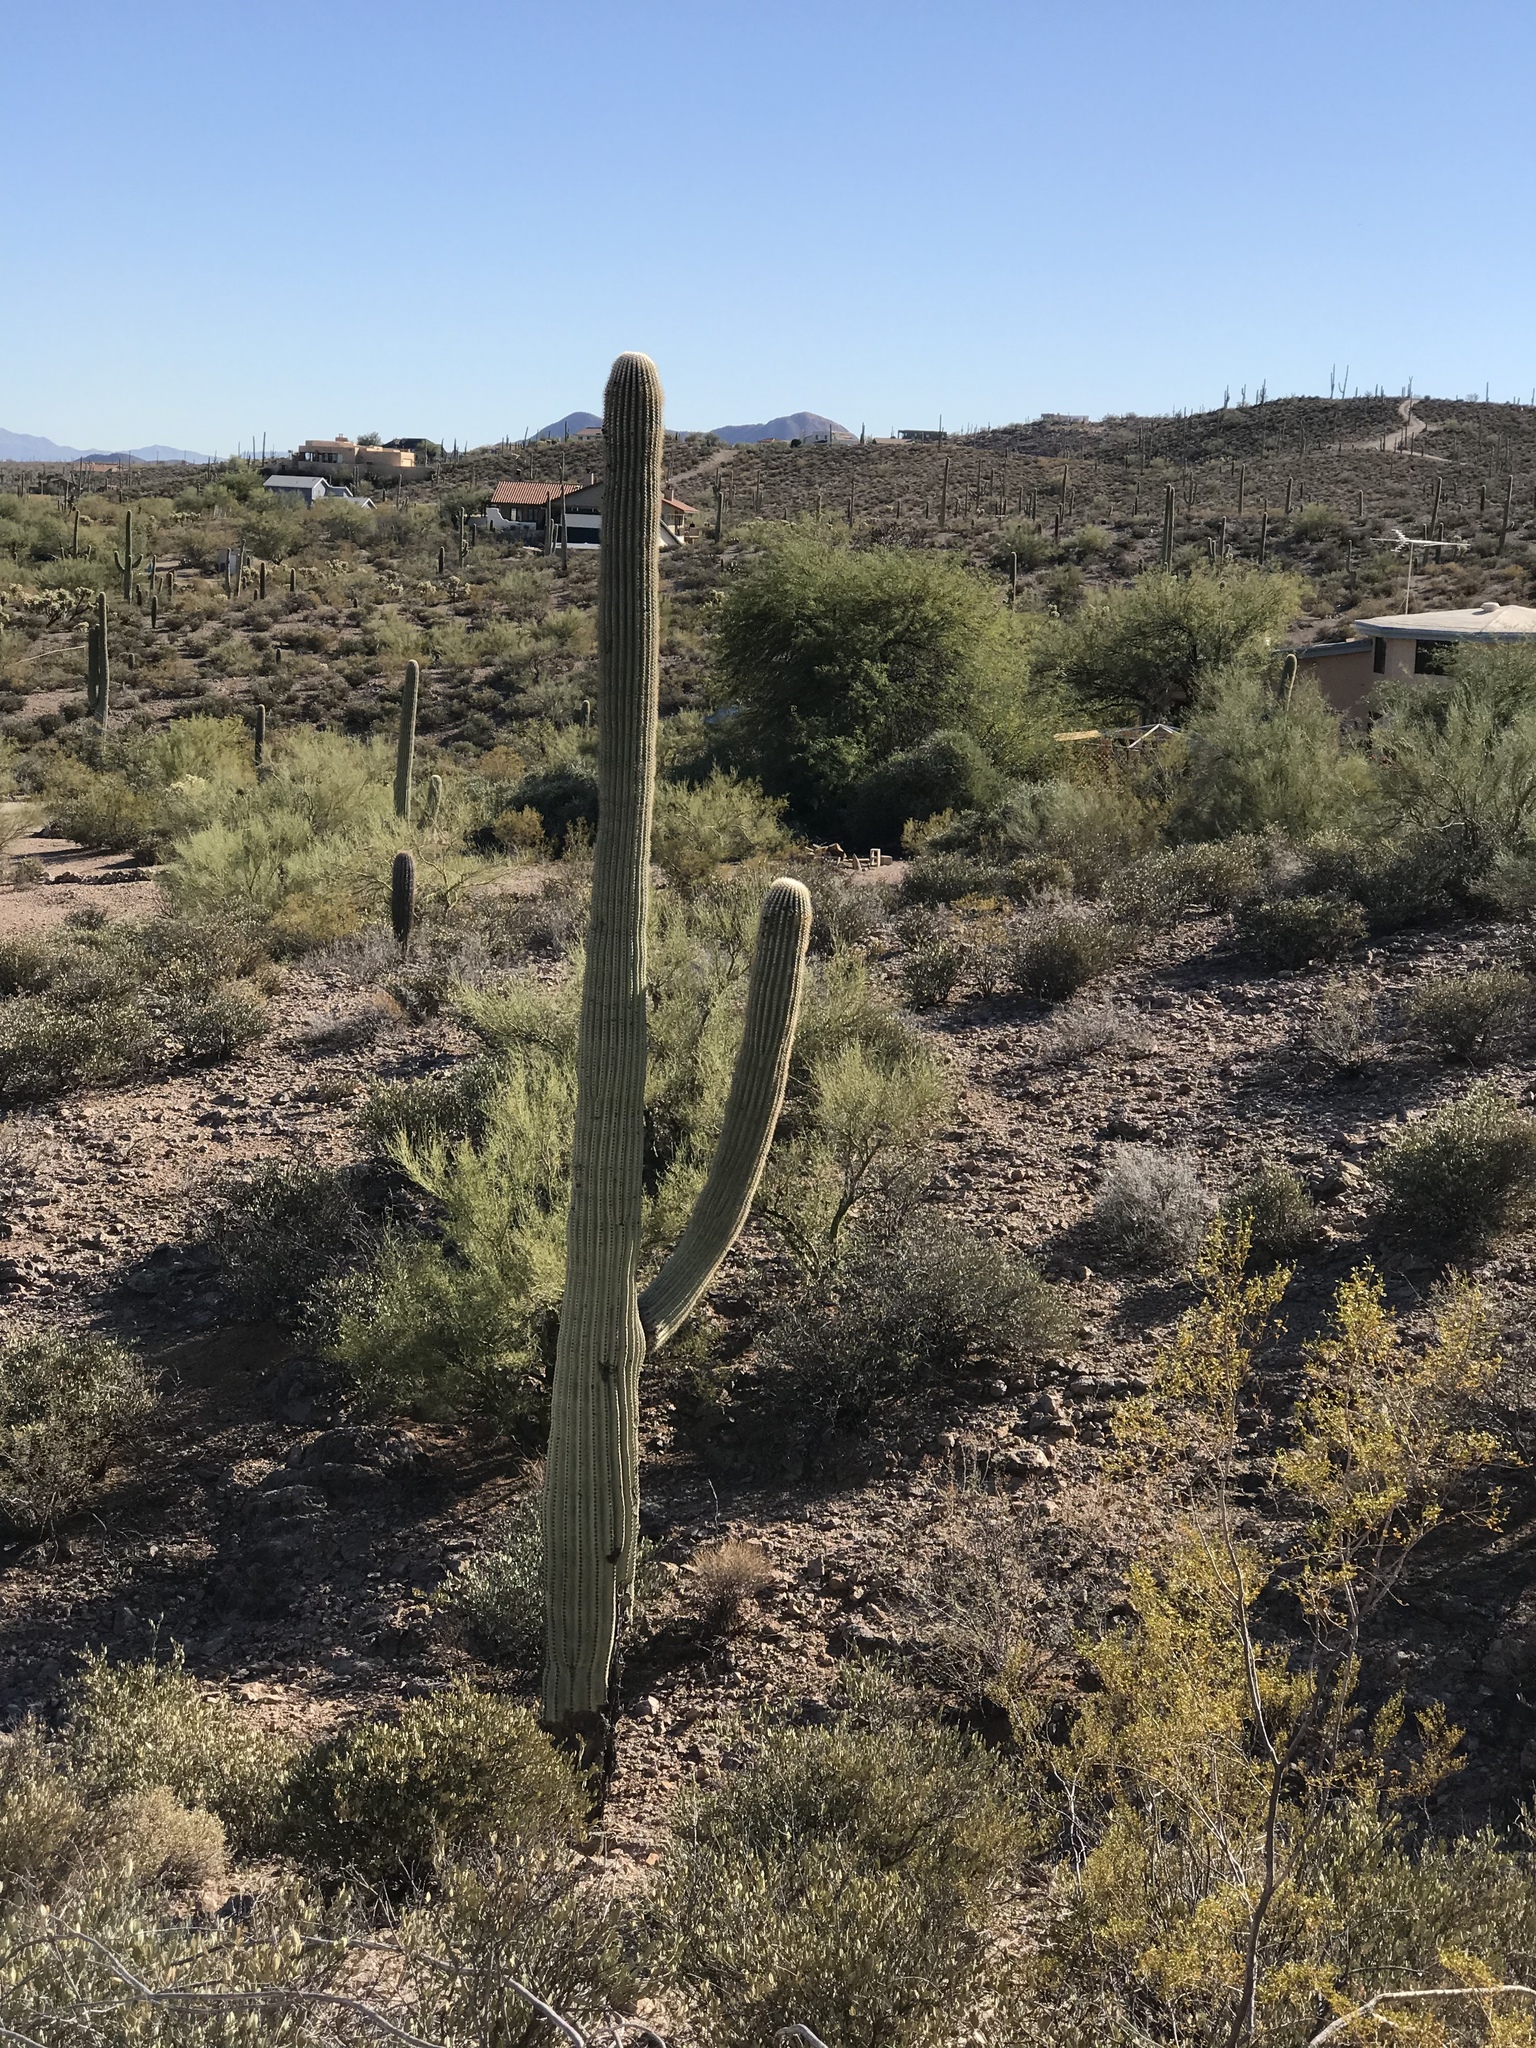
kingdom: Plantae
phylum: Tracheophyta
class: Magnoliopsida
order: Caryophyllales
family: Cactaceae
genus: Carnegiea
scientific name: Carnegiea gigantea
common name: Saguaro
